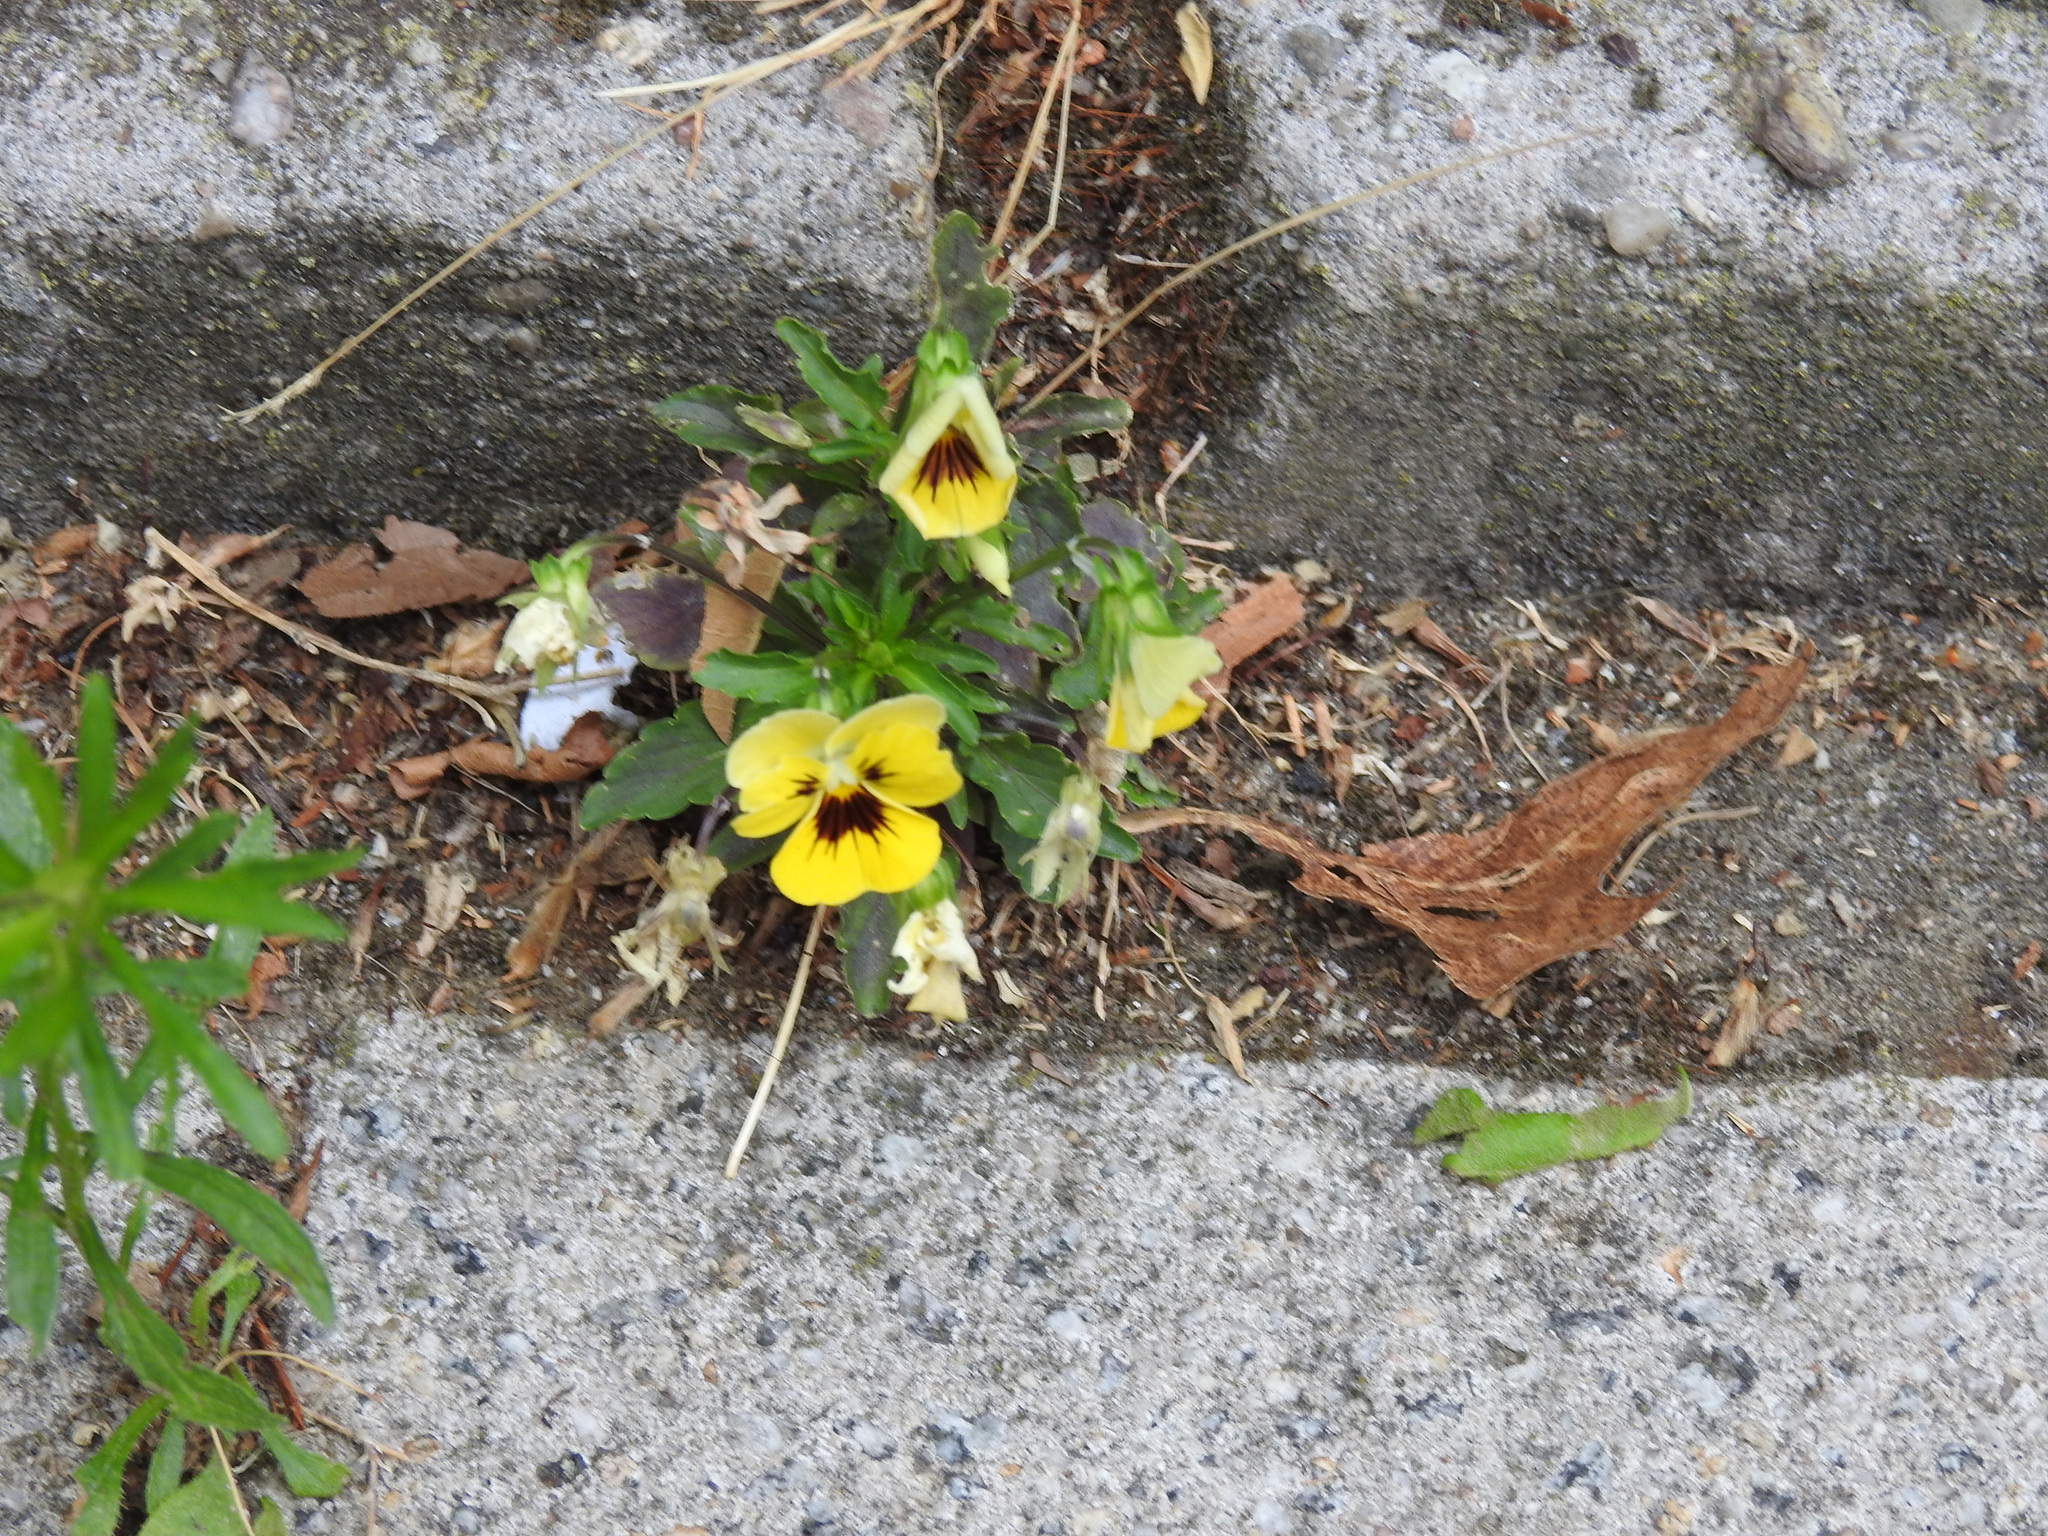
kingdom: Plantae
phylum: Tracheophyta
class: Magnoliopsida
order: Malpighiales
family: Violaceae
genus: Viola
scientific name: Viola williamsii
